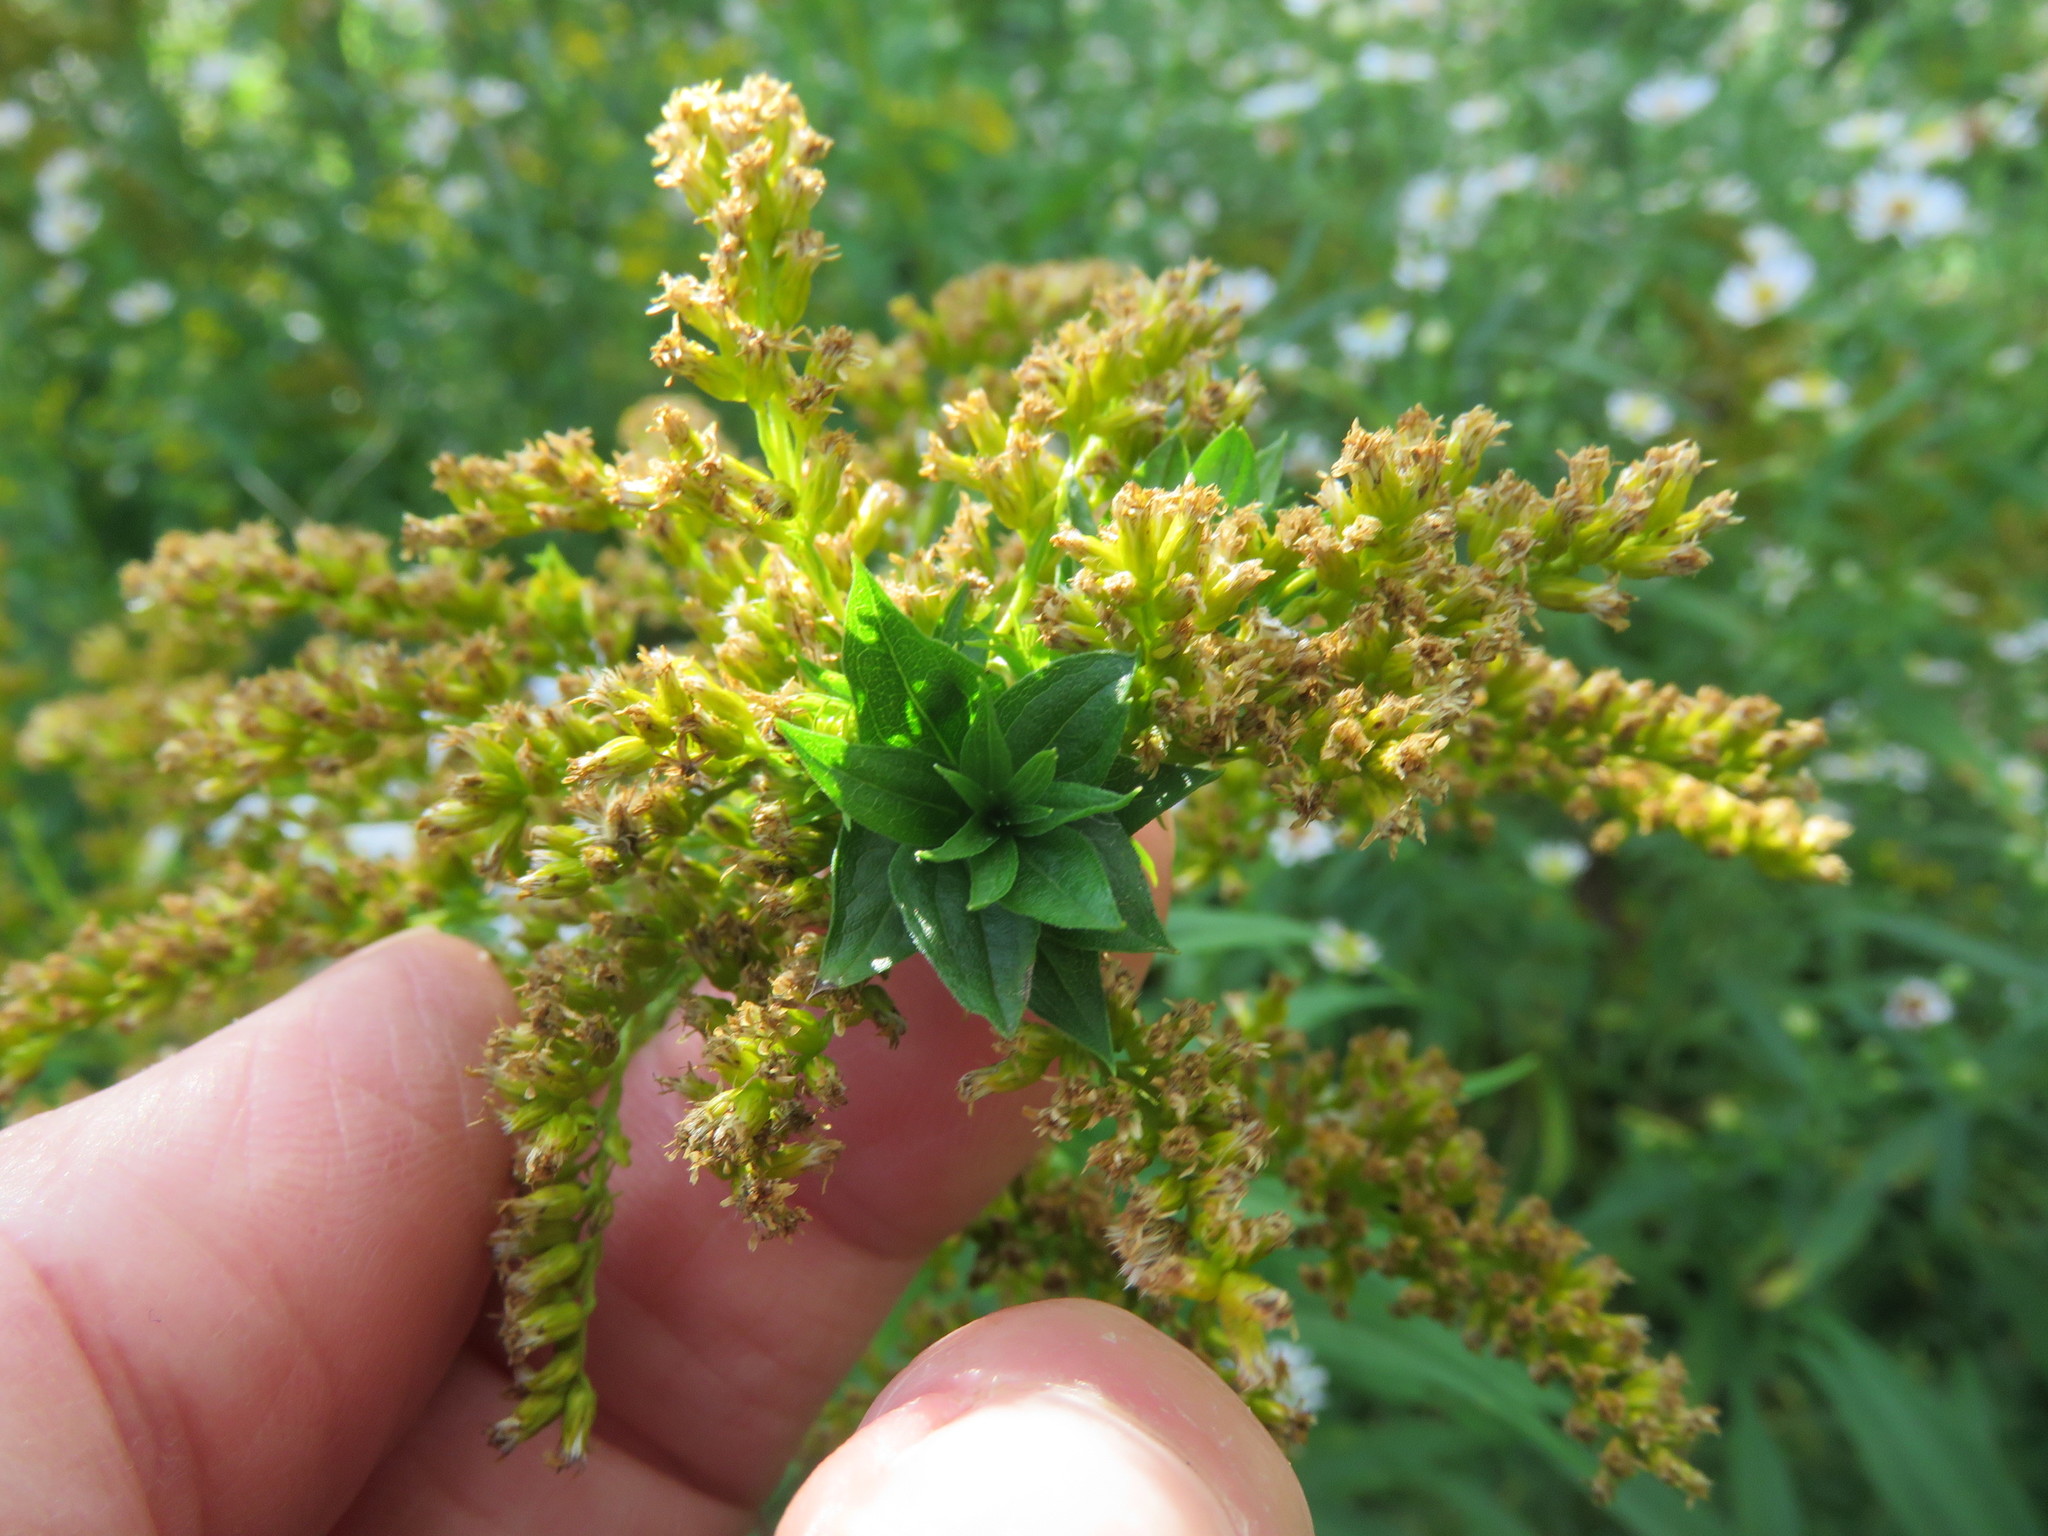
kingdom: Animalia
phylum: Arthropoda
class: Insecta
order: Diptera
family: Cecidomyiidae
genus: Rhopalomyia
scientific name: Rhopalomyia solidaginis
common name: Goldenrod bunch gall midge
